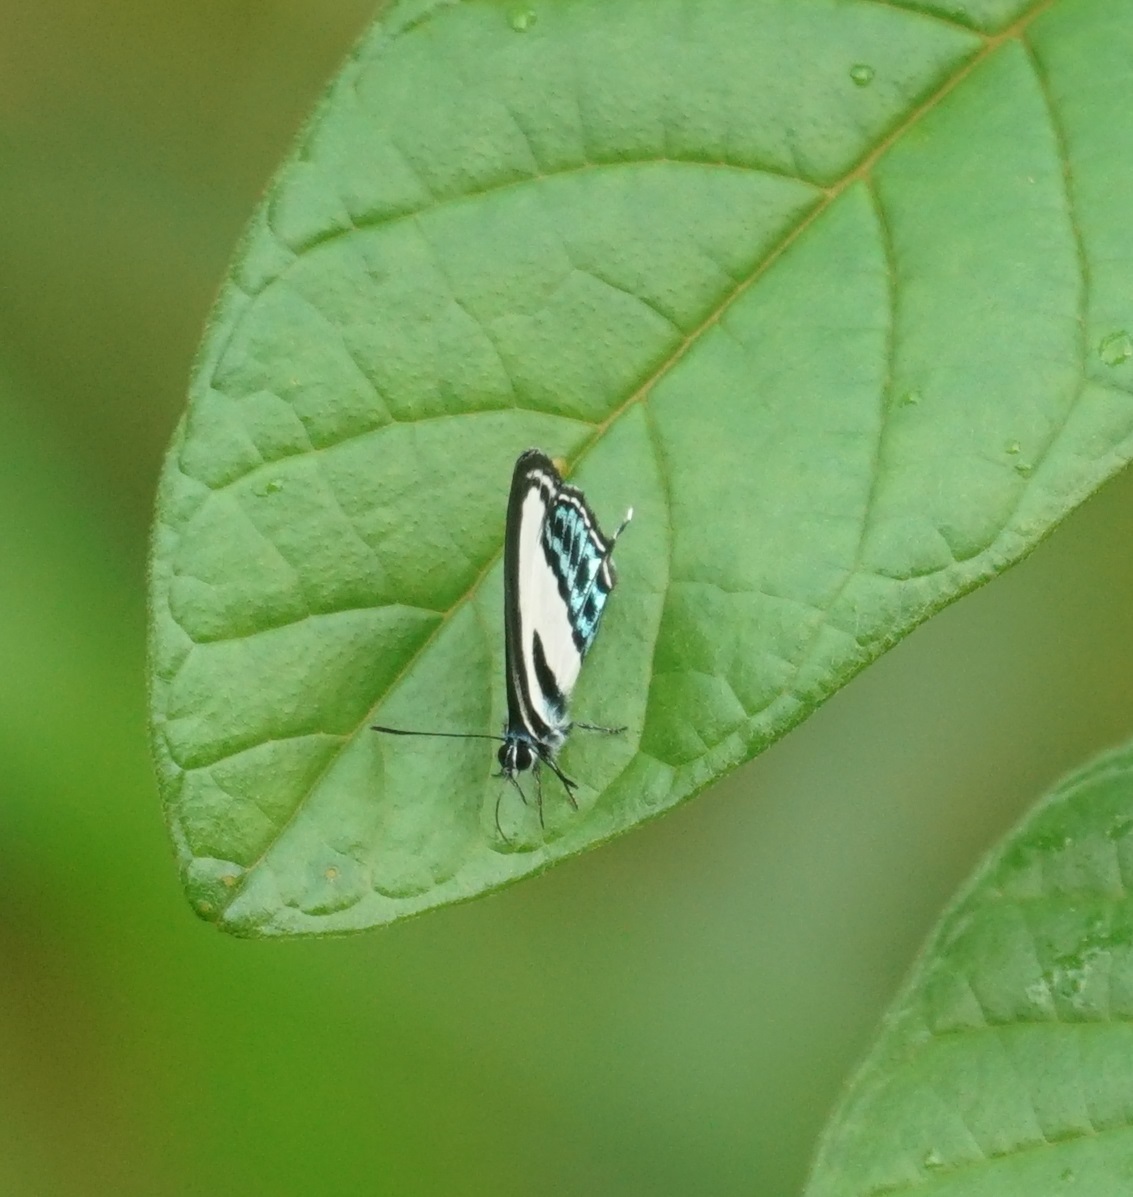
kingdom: Animalia
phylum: Arthropoda
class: Insecta
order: Lepidoptera
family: Lycaenidae
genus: Nacaduba
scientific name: Nacaduba cyanea
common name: Tailed green-banded line blue
